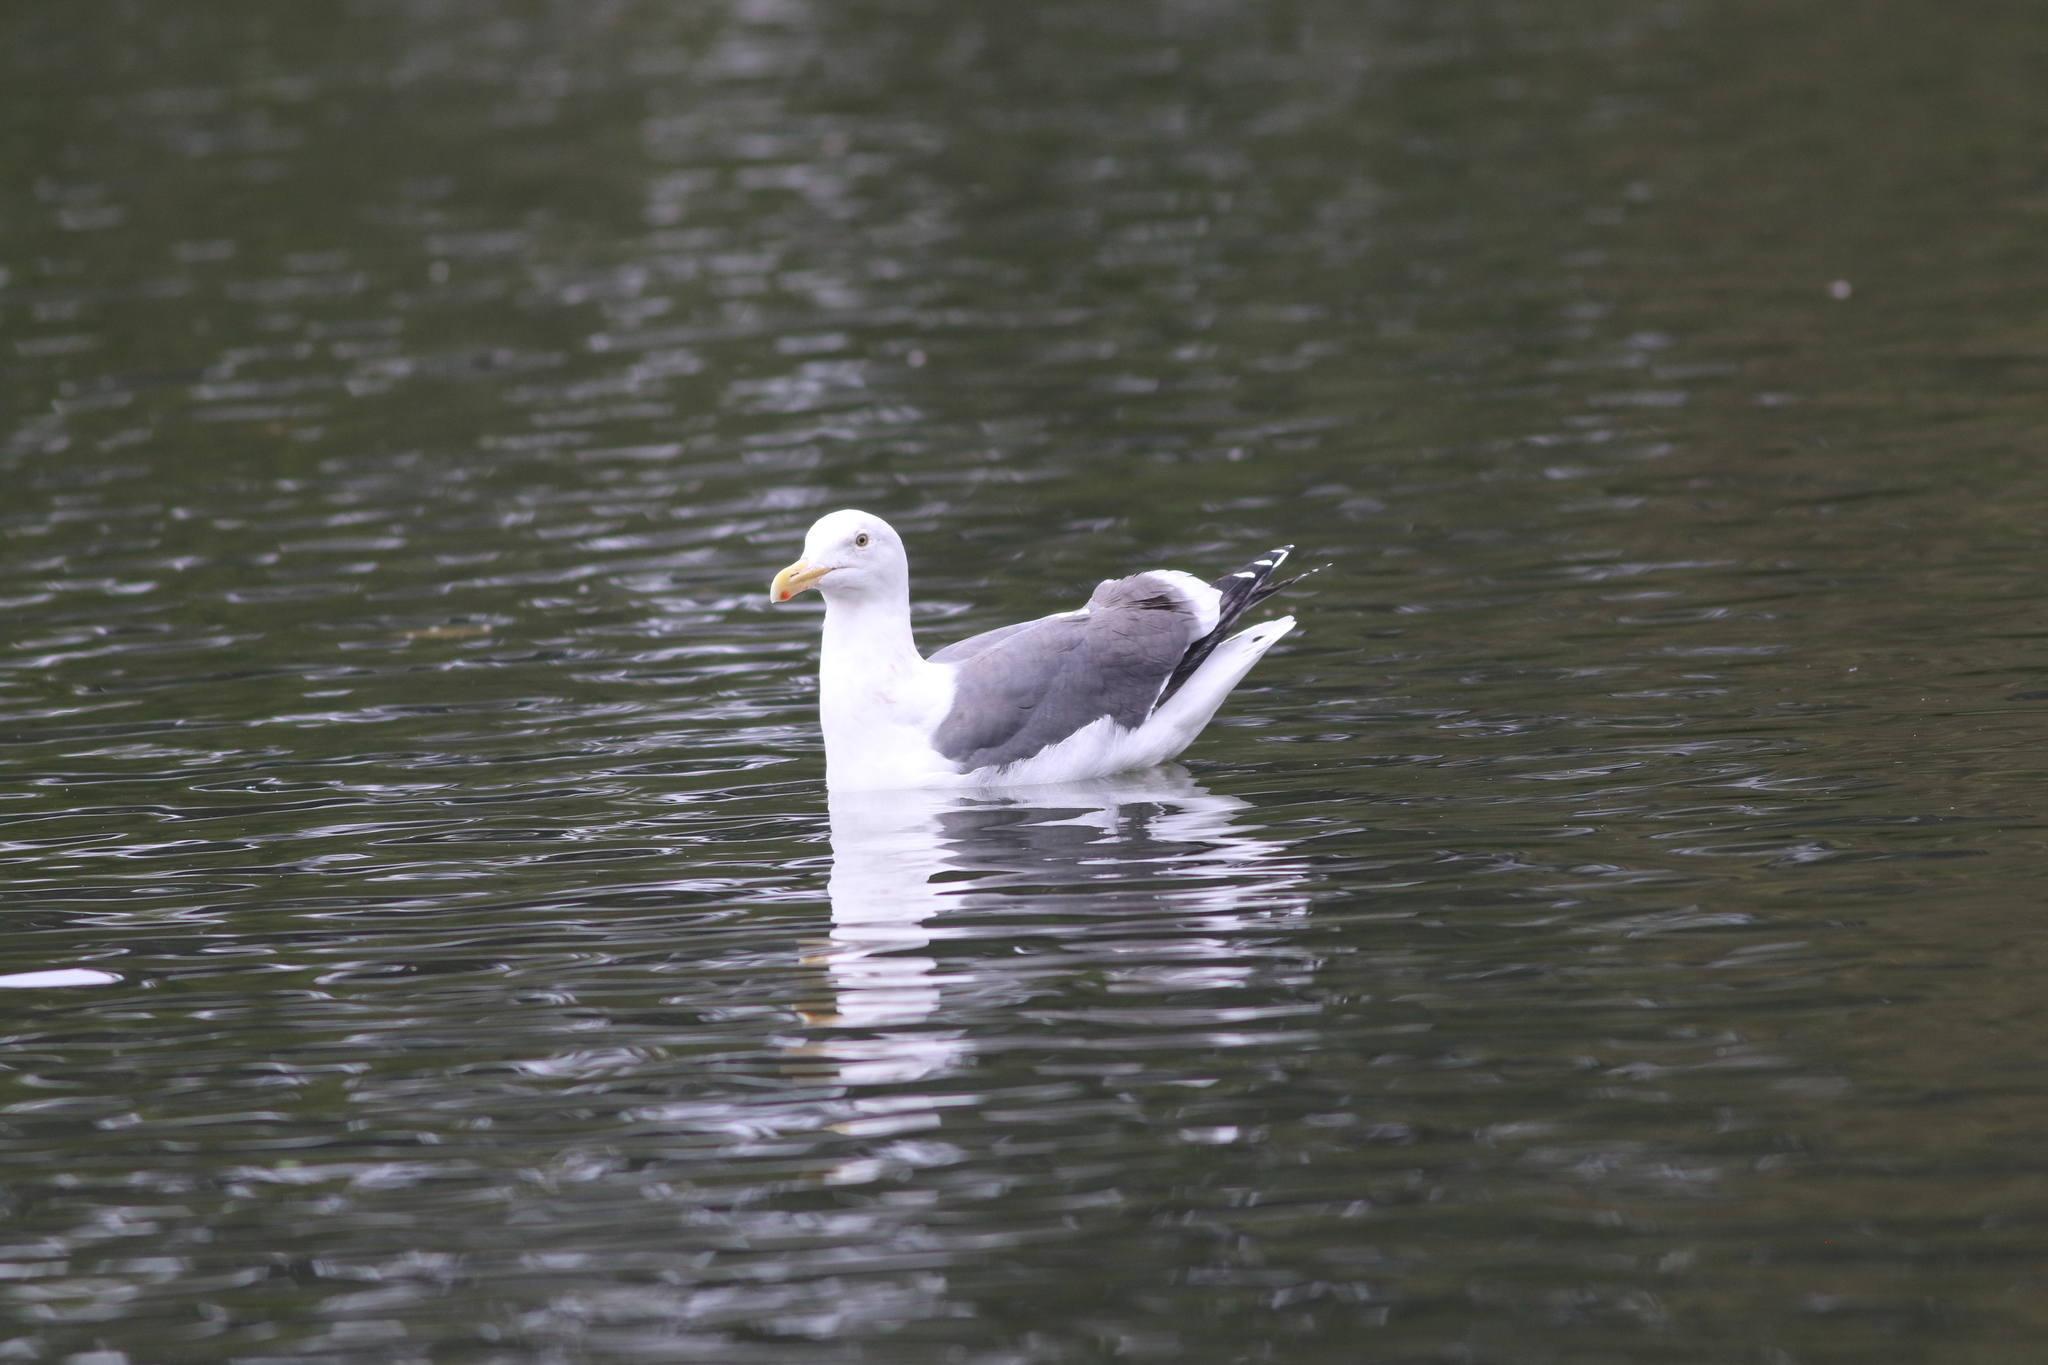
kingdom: Animalia
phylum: Chordata
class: Aves
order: Charadriiformes
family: Laridae
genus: Larus
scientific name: Larus occidentalis
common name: Western gull
